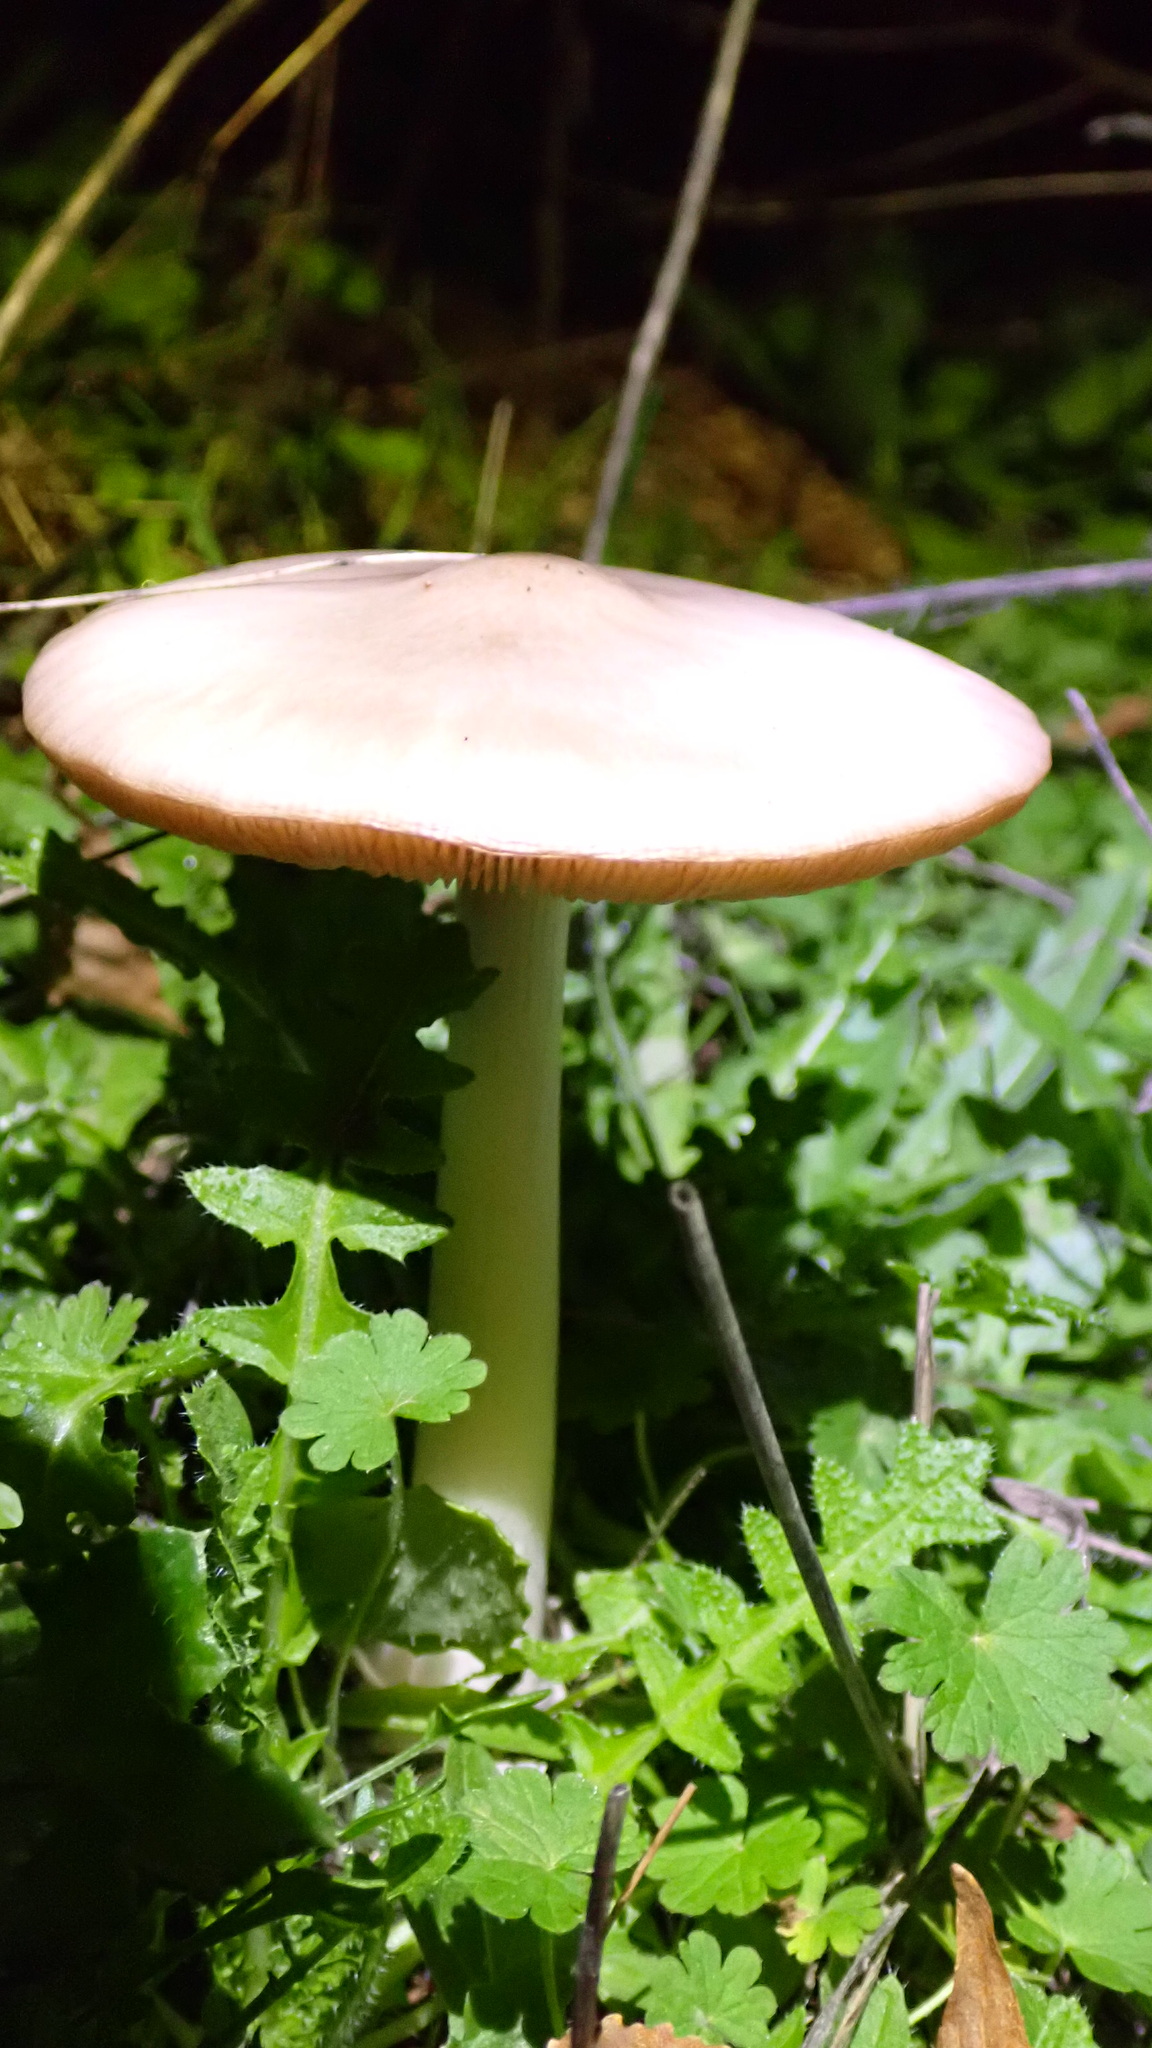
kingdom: Fungi
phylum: Basidiomycota
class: Agaricomycetes
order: Agaricales
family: Pluteaceae
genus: Volvopluteus
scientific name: Volvopluteus gloiocephalus
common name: Stubble rosegill
